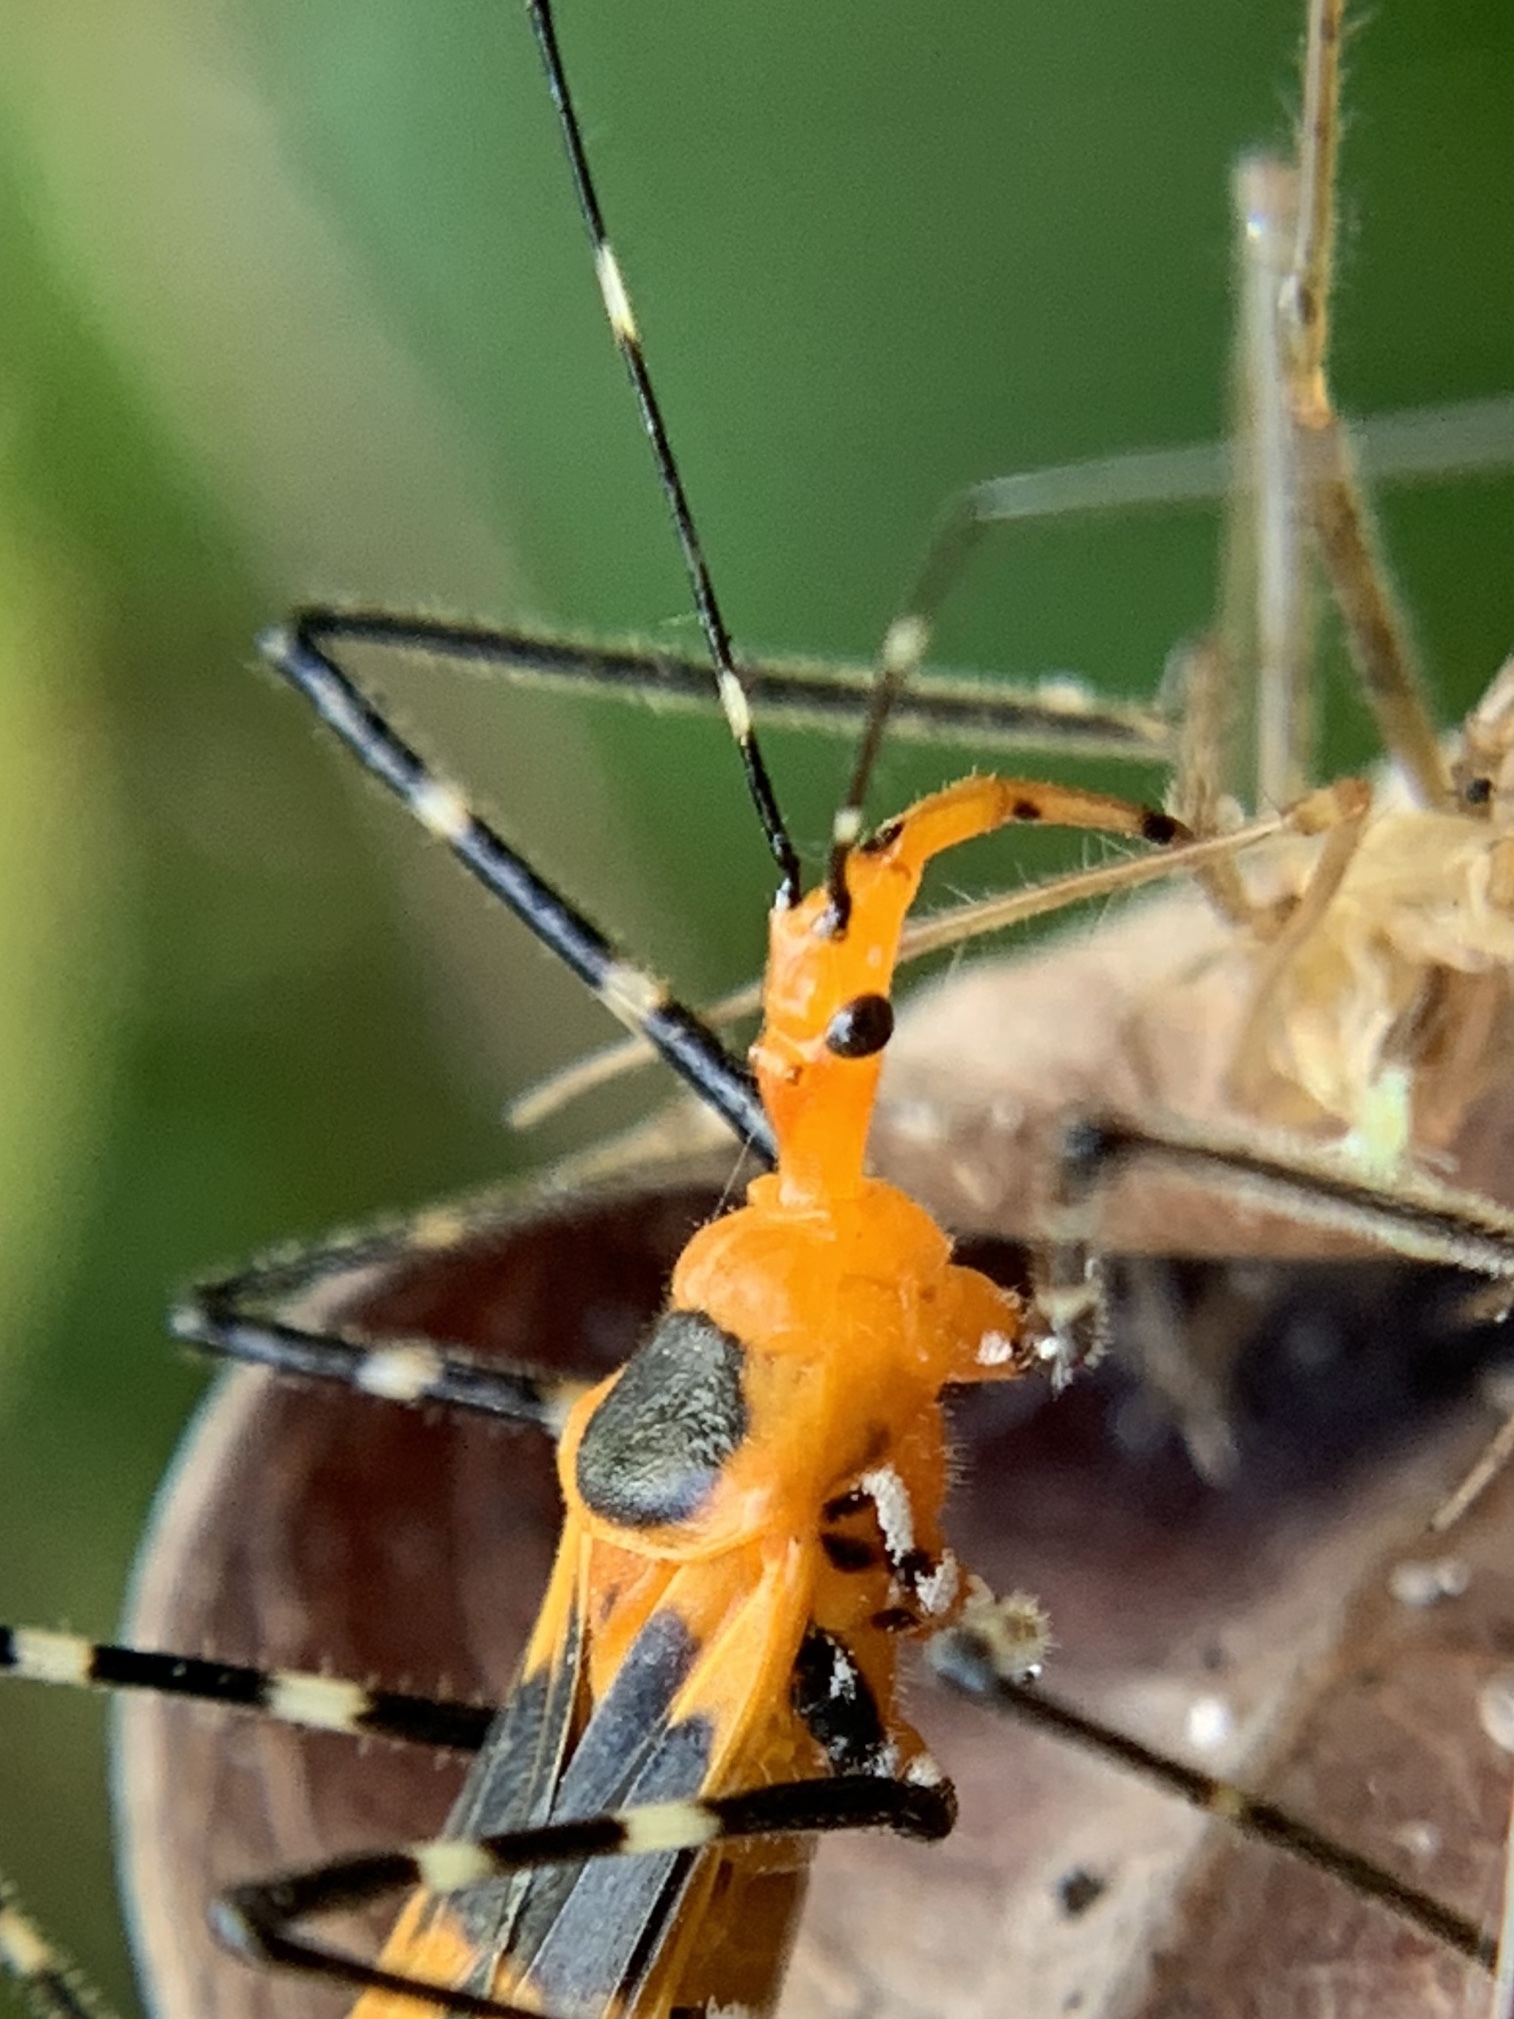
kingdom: Animalia
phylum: Arthropoda
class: Insecta
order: Hemiptera
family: Reduviidae
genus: Zelus
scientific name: Zelus longipes
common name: Milkweed assassin bug
